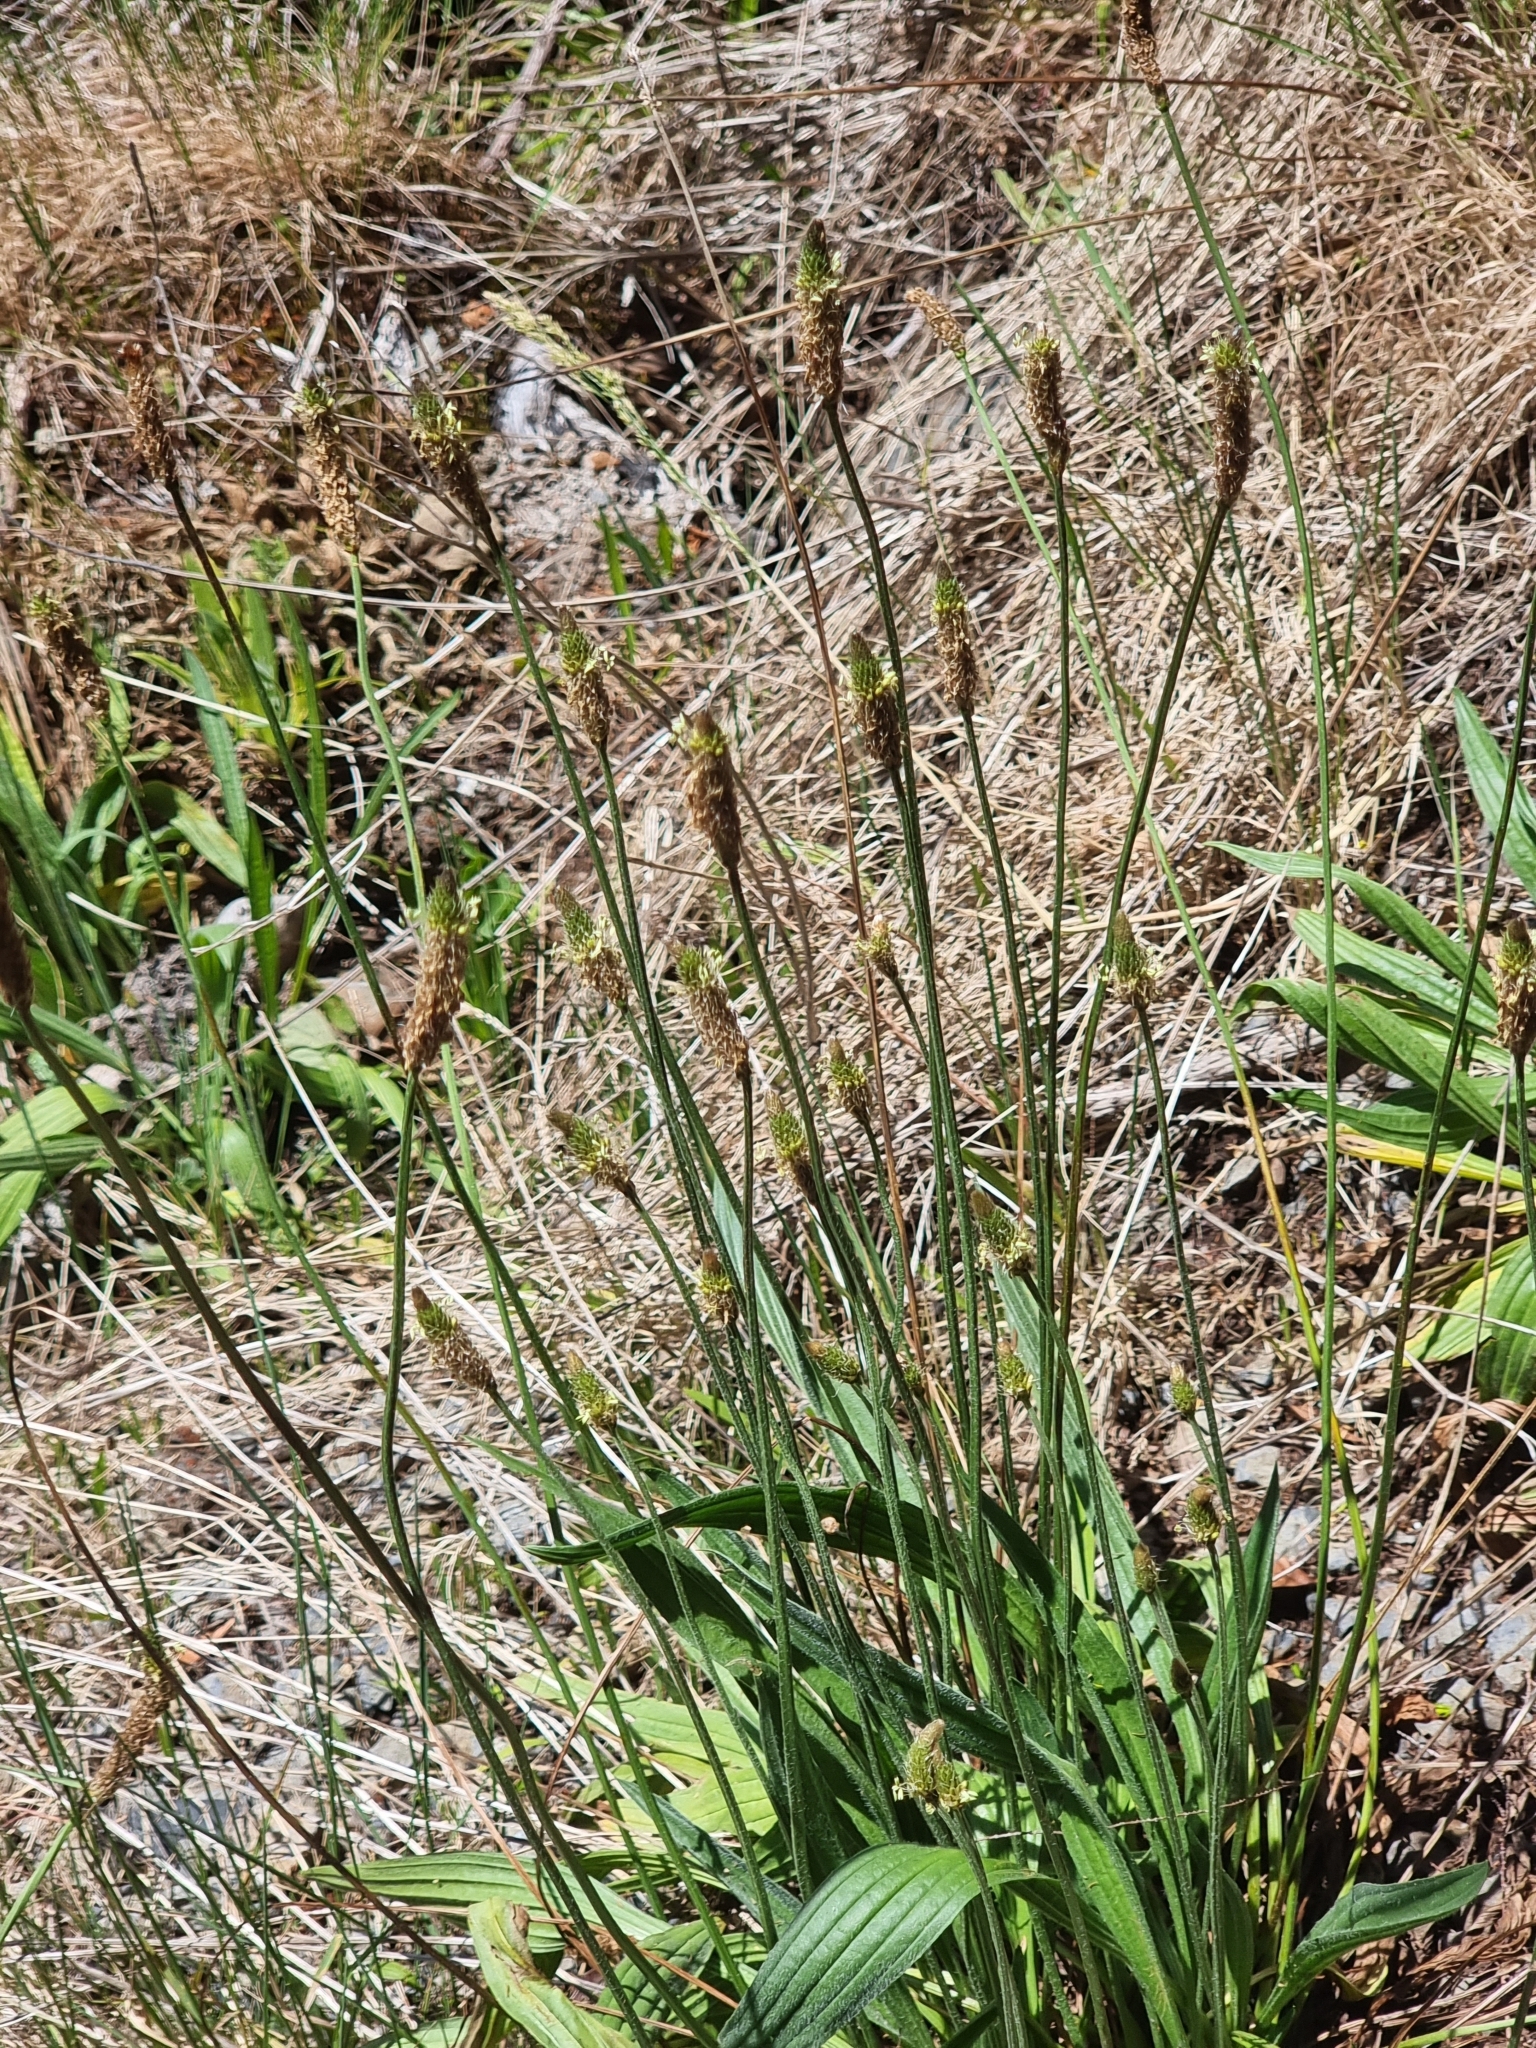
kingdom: Plantae
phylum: Tracheophyta
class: Magnoliopsida
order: Lamiales
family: Plantaginaceae
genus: Plantago
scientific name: Plantago lanceolata
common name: Ribwort plantain
